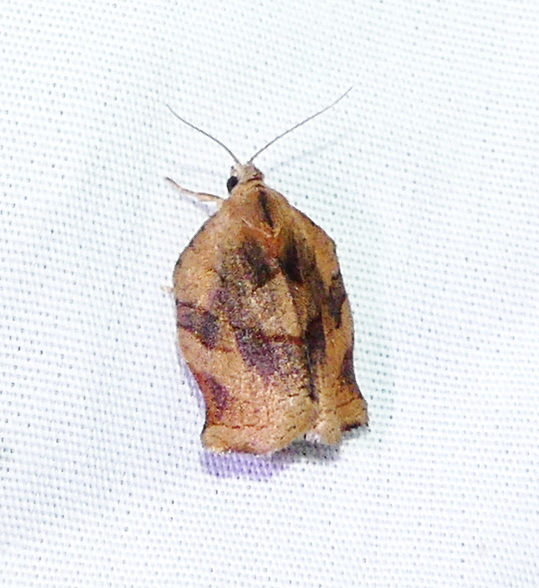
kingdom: Animalia
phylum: Arthropoda
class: Insecta
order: Lepidoptera
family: Tortricidae
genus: Archips
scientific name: Archips purpurana
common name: Omnivorous leafroller
